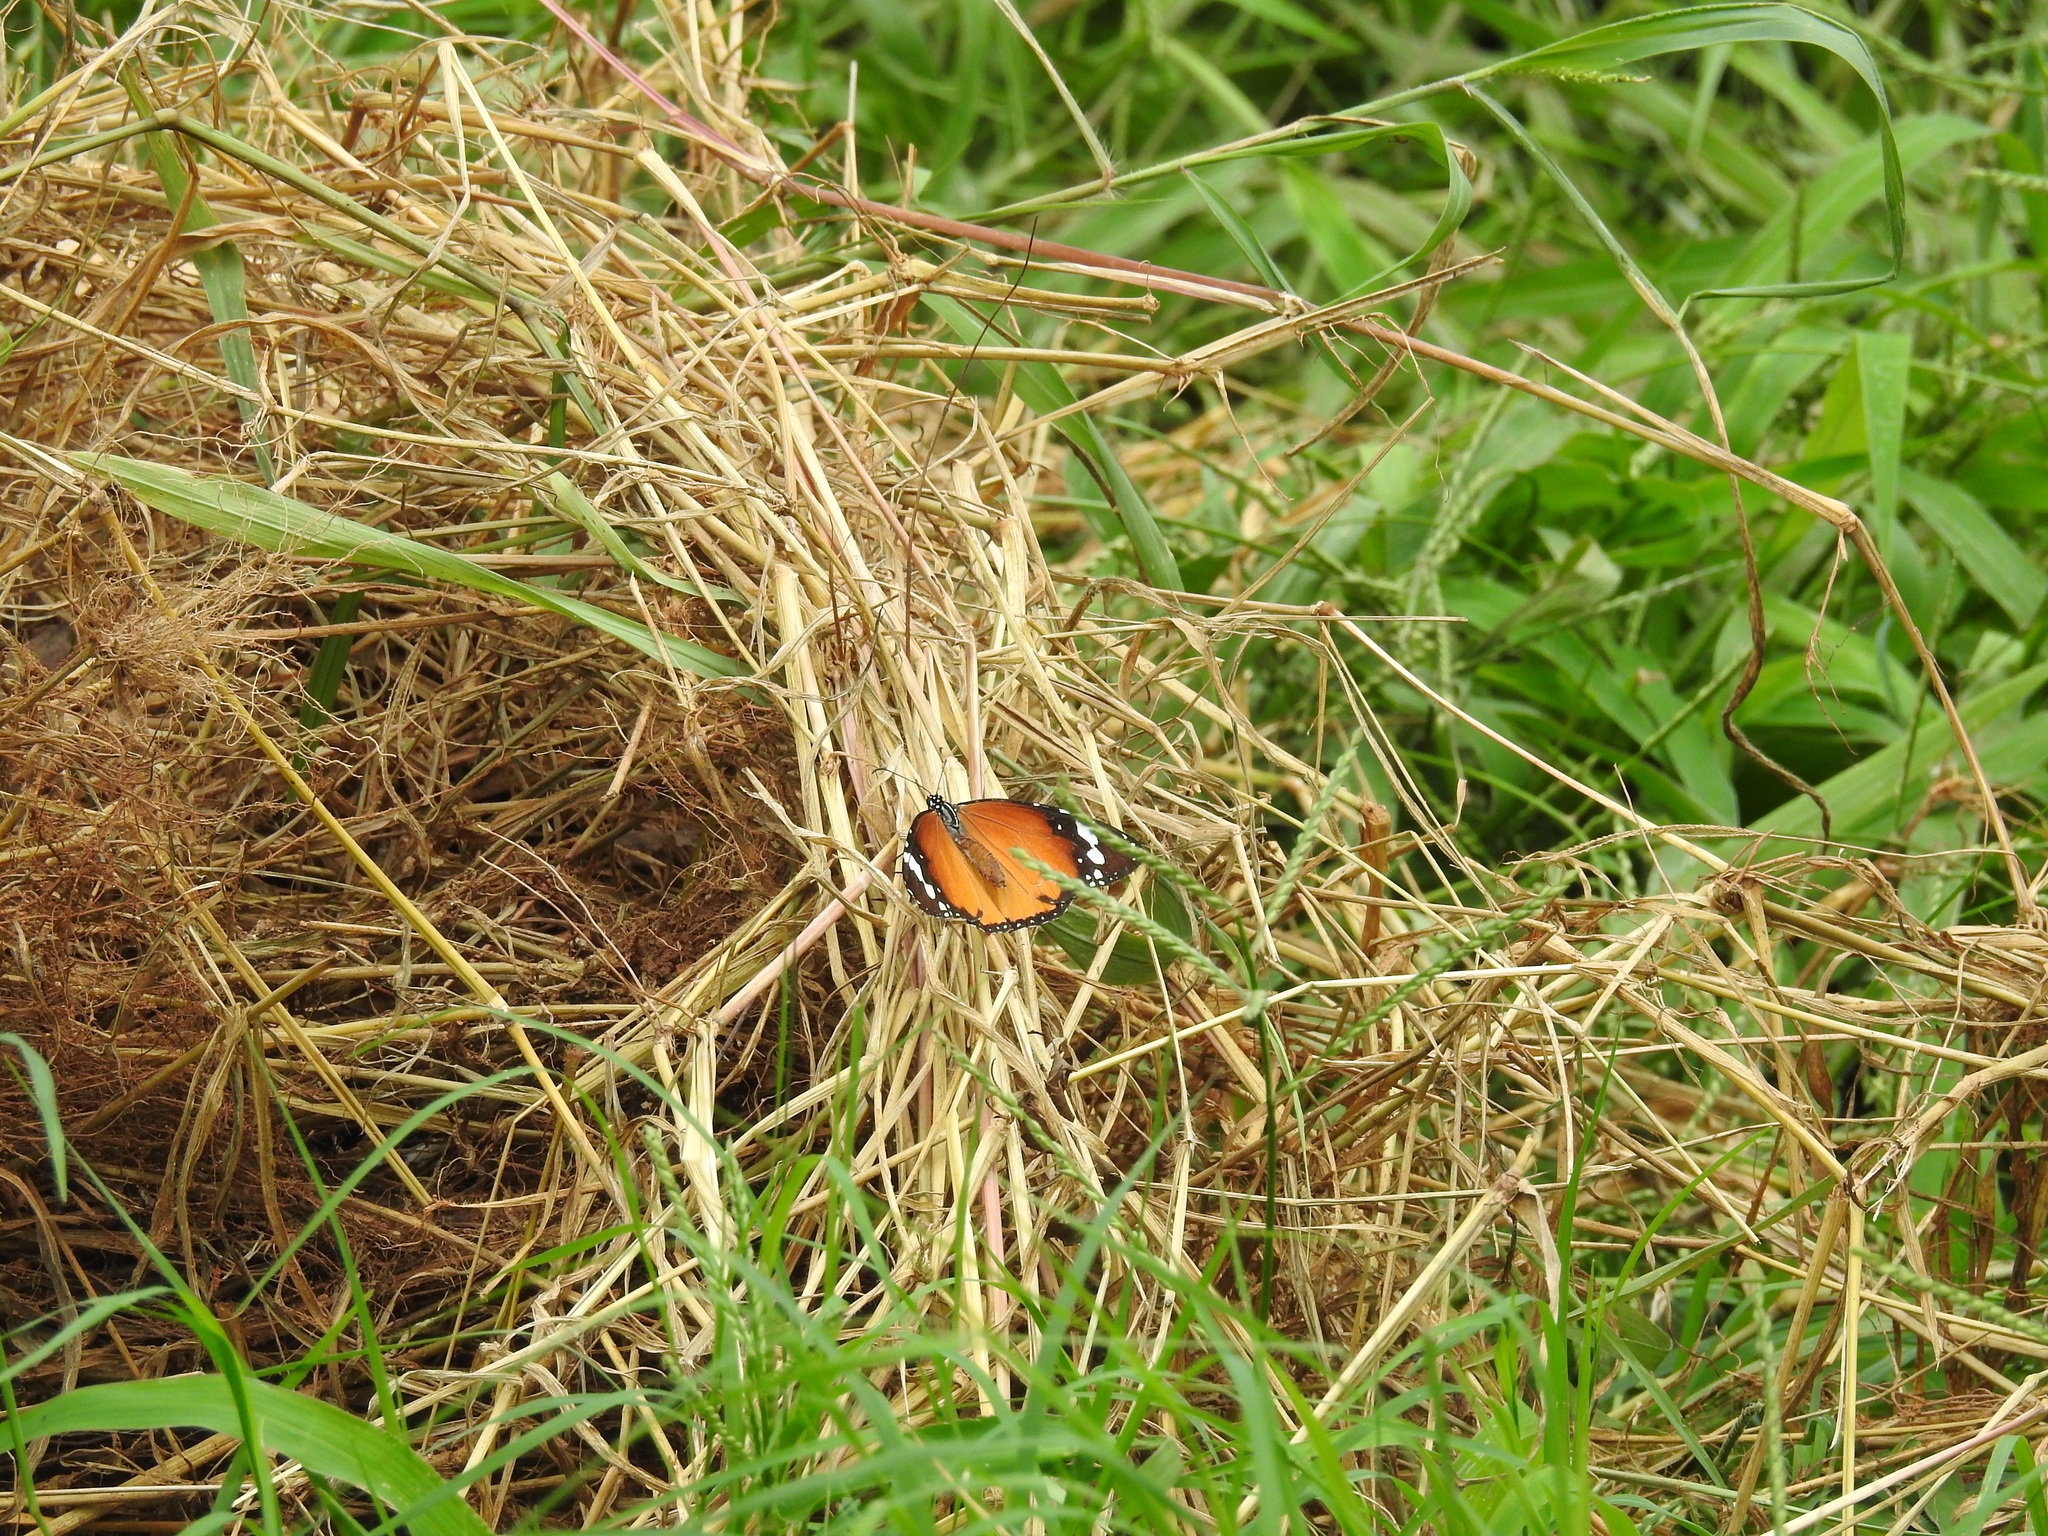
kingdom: Animalia
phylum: Arthropoda
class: Insecta
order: Lepidoptera
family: Nymphalidae
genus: Danaus
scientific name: Danaus chrysippus
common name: Plain tiger
